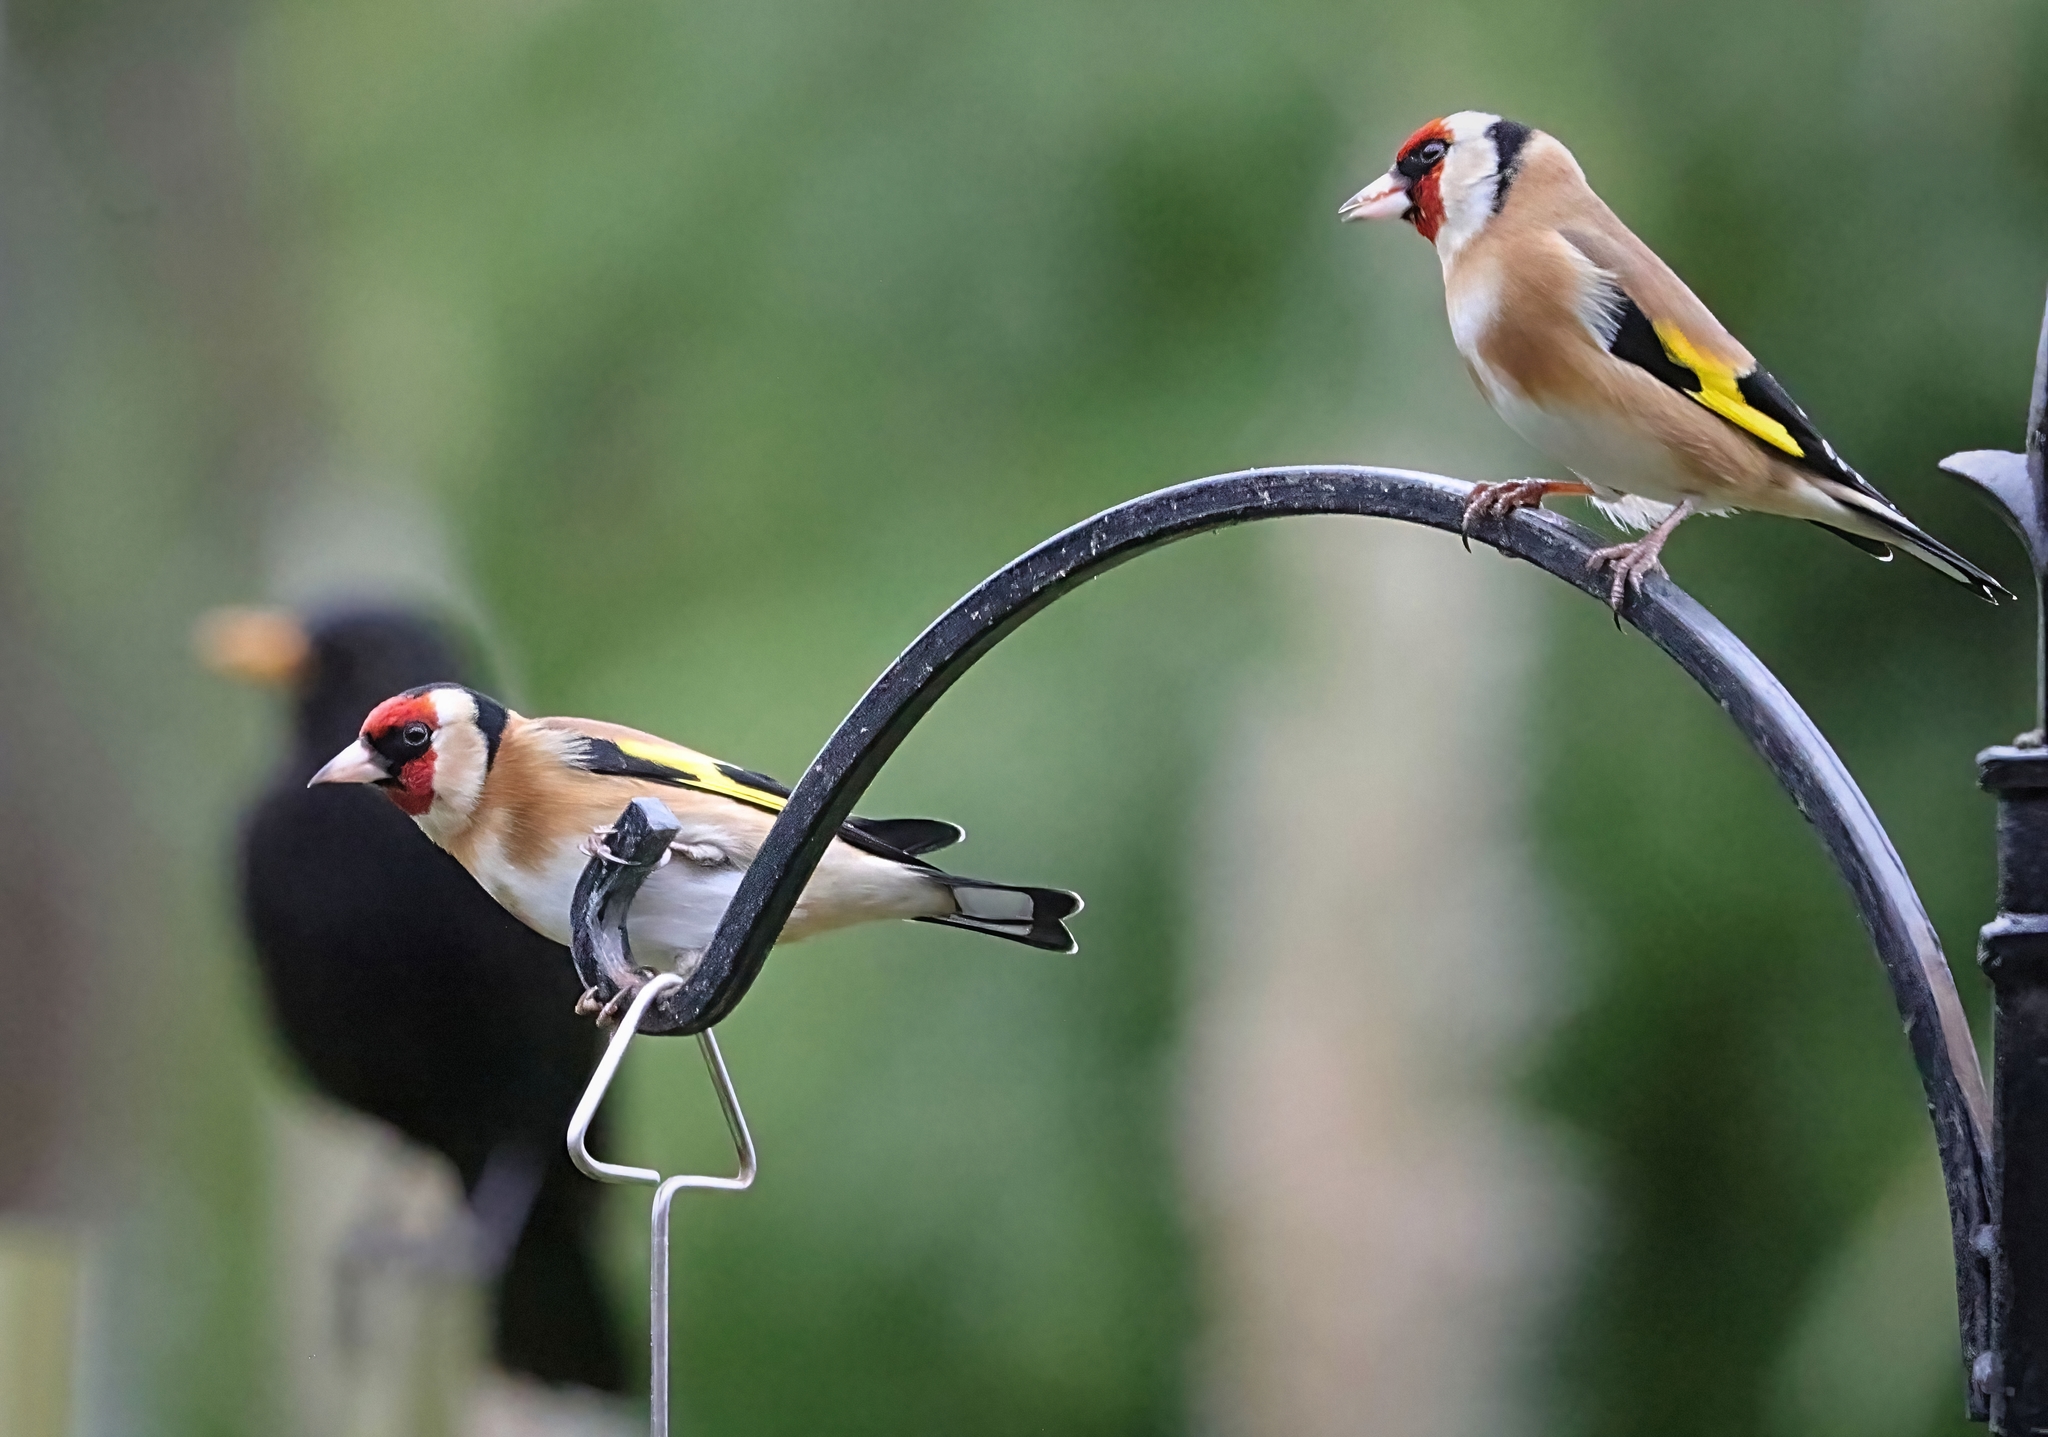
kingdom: Animalia
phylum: Chordata
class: Aves
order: Passeriformes
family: Fringillidae
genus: Carduelis
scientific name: Carduelis carduelis
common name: European goldfinch
